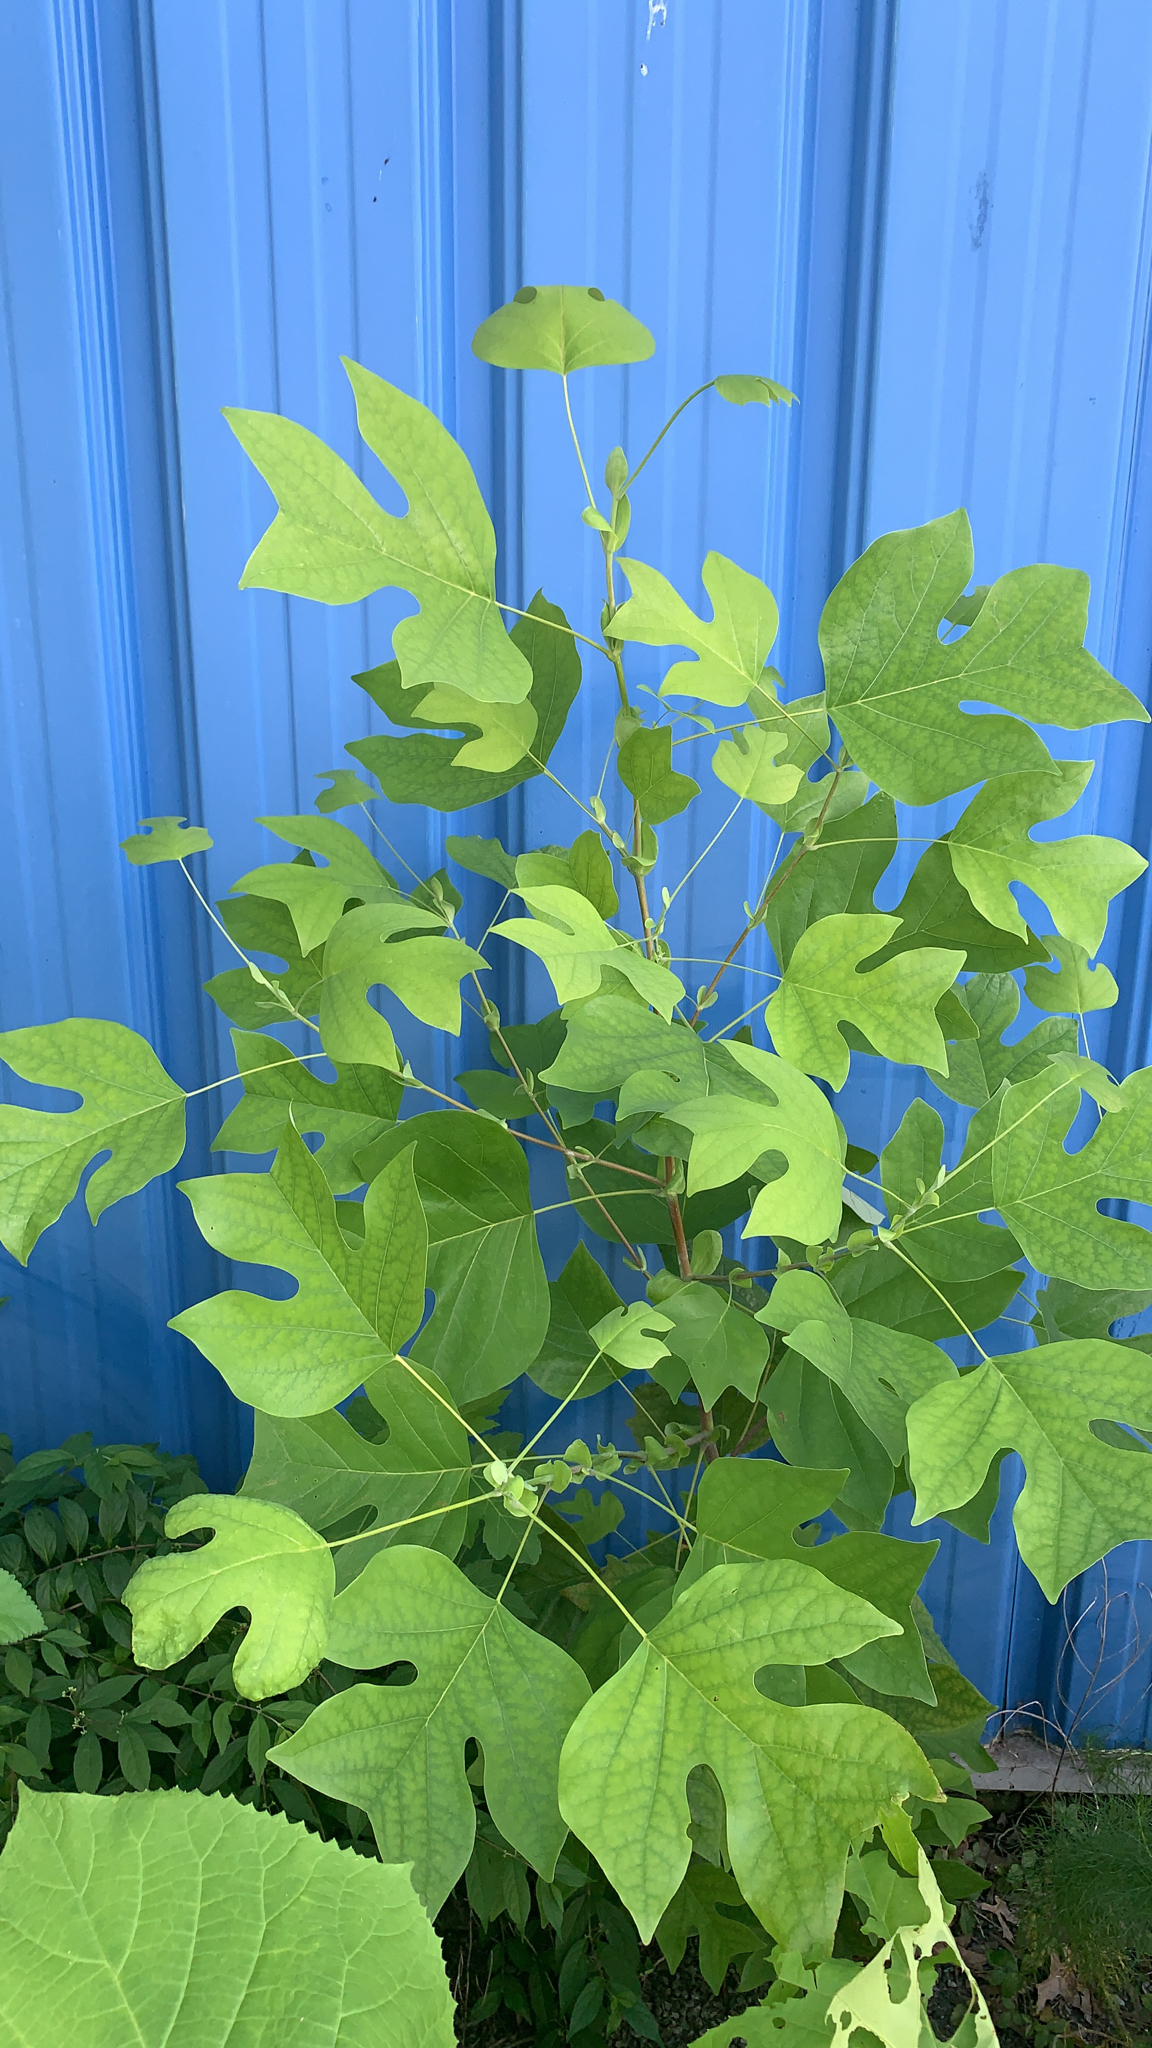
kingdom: Plantae
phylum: Tracheophyta
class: Magnoliopsida
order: Magnoliales
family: Magnoliaceae
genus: Liriodendron
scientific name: Liriodendron tulipifera
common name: Tulip tree
